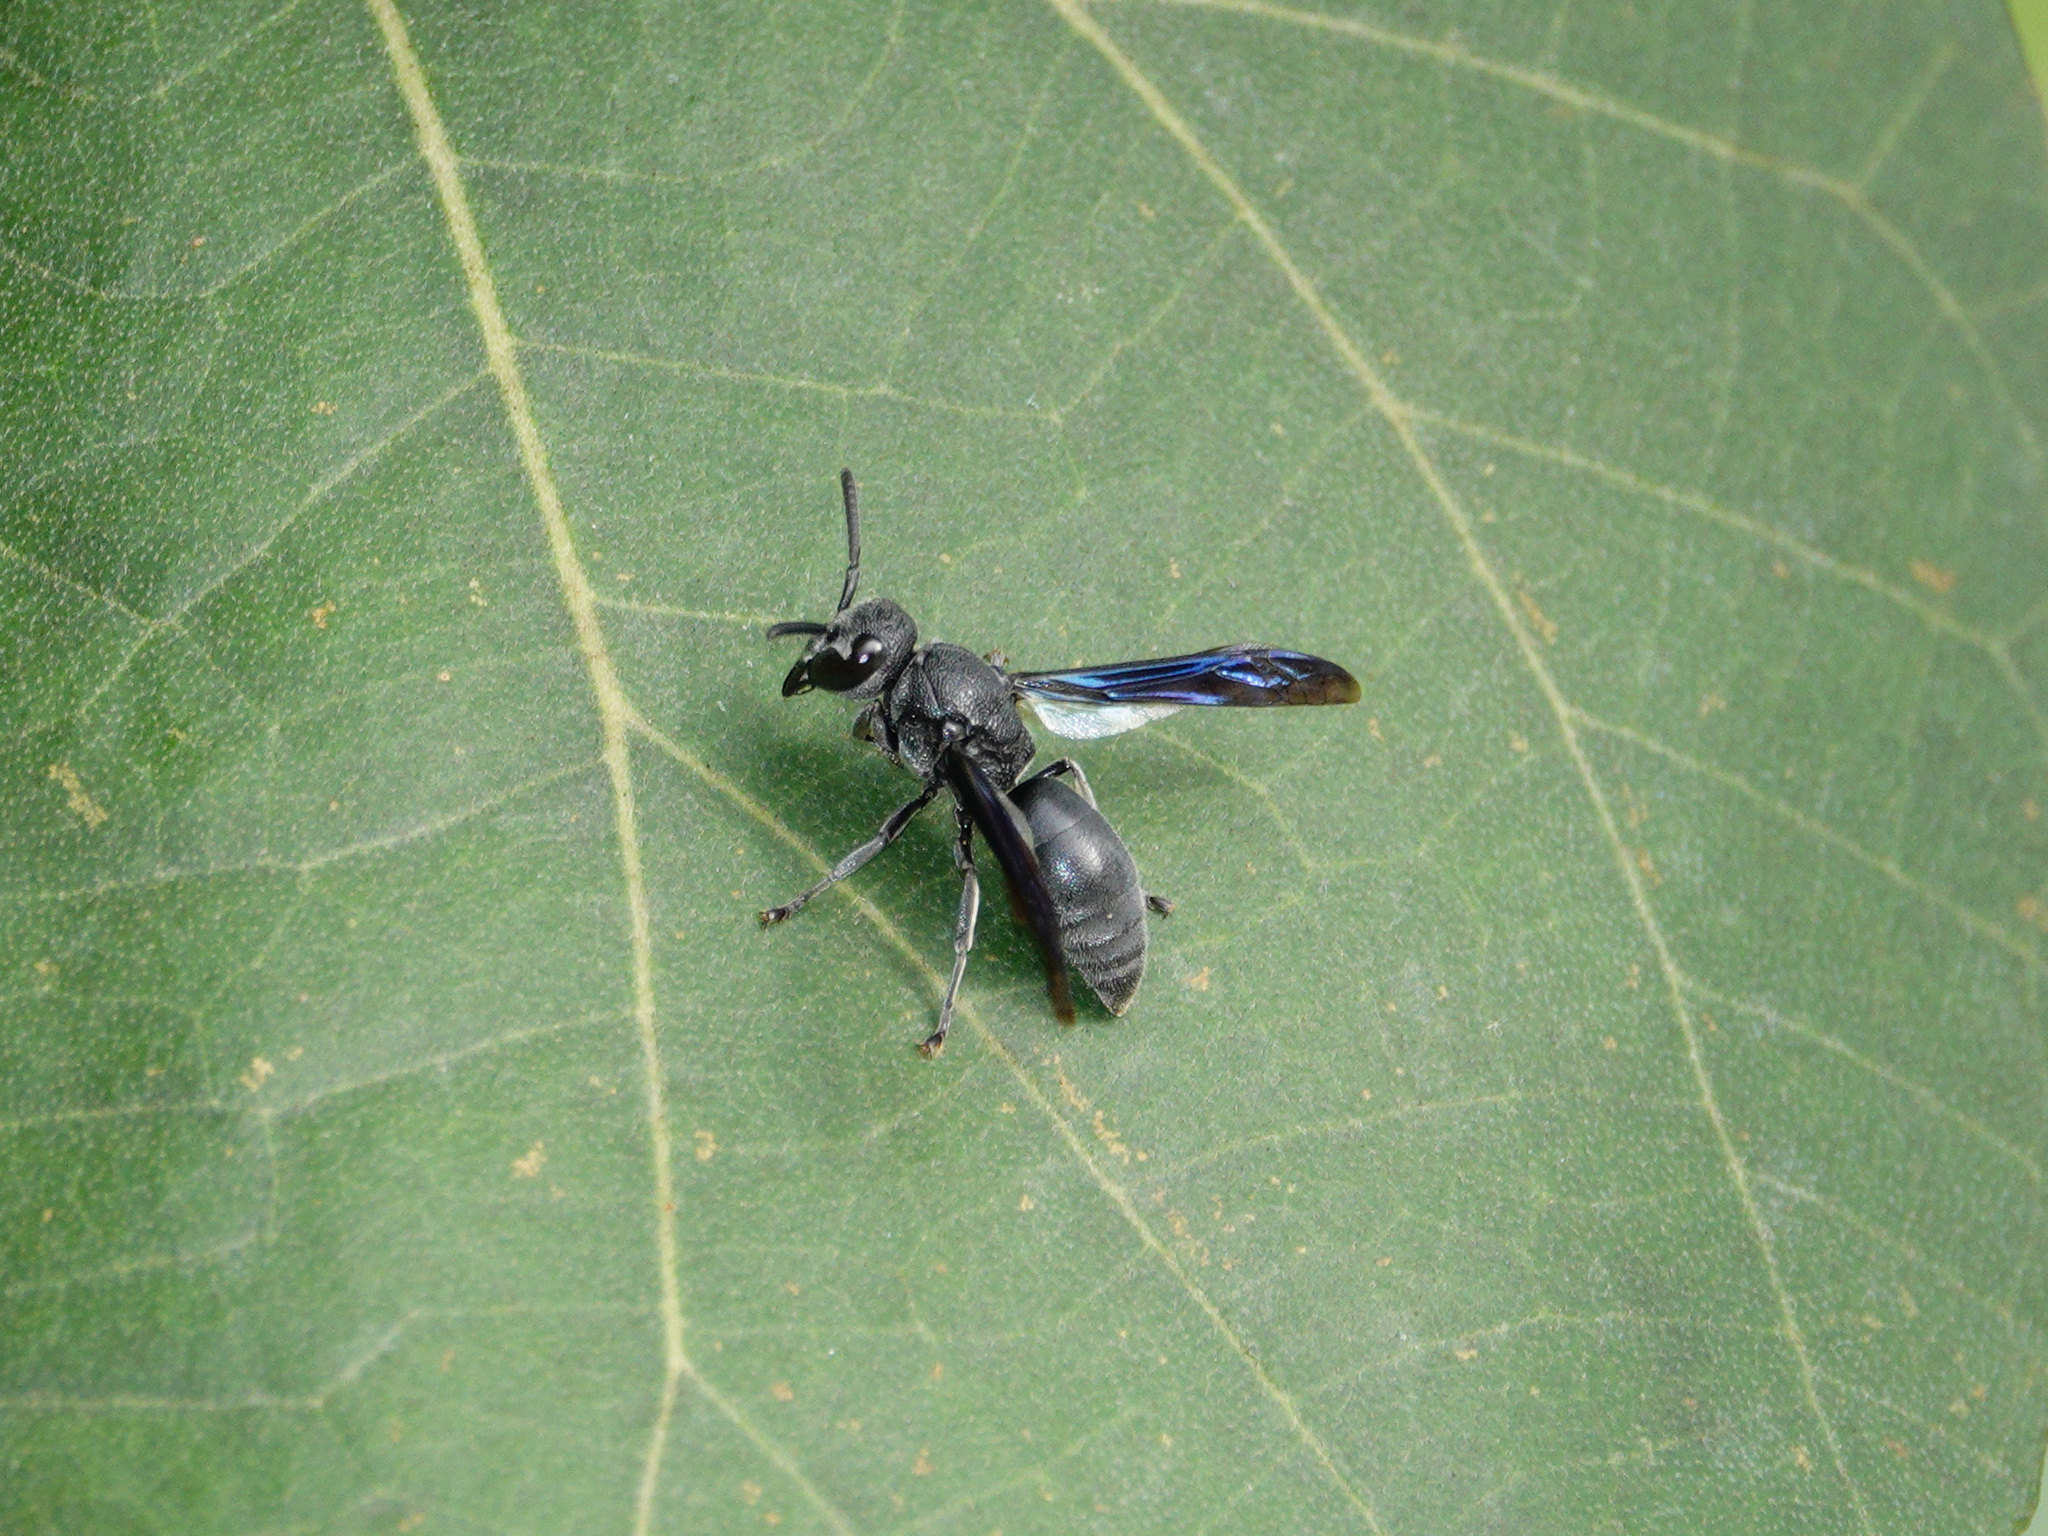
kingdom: Animalia
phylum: Arthropoda
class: Insecta
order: Hymenoptera
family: Eumenidae
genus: Allorhynchium
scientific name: Allorhynchium argentatum
